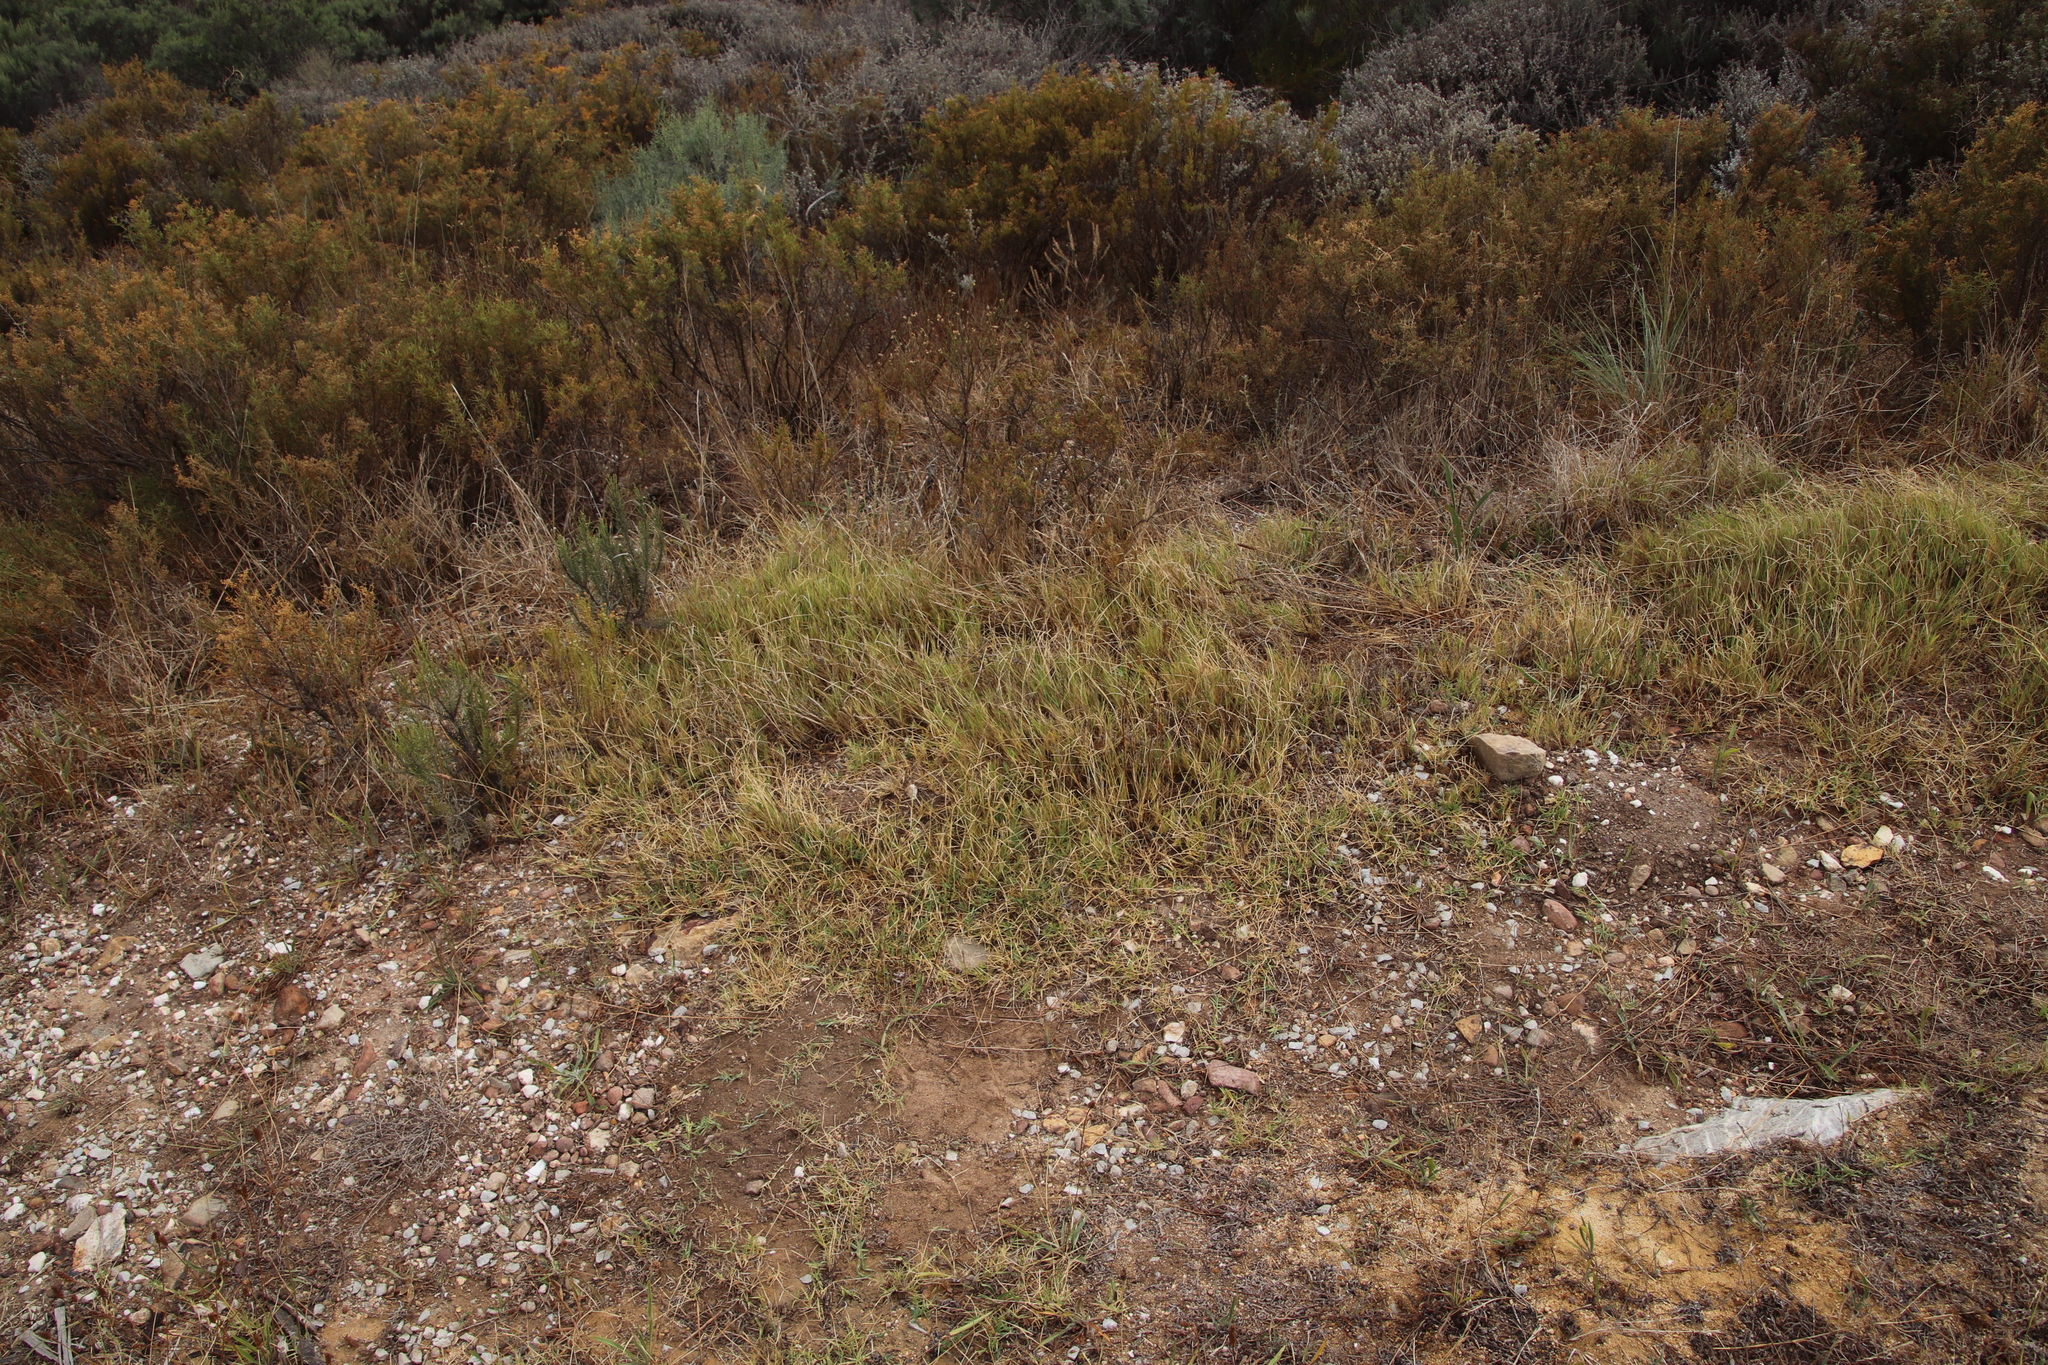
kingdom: Plantae
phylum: Tracheophyta
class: Liliopsida
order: Poales
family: Poaceae
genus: Cynodon
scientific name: Cynodon dactylon
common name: Bermuda grass
